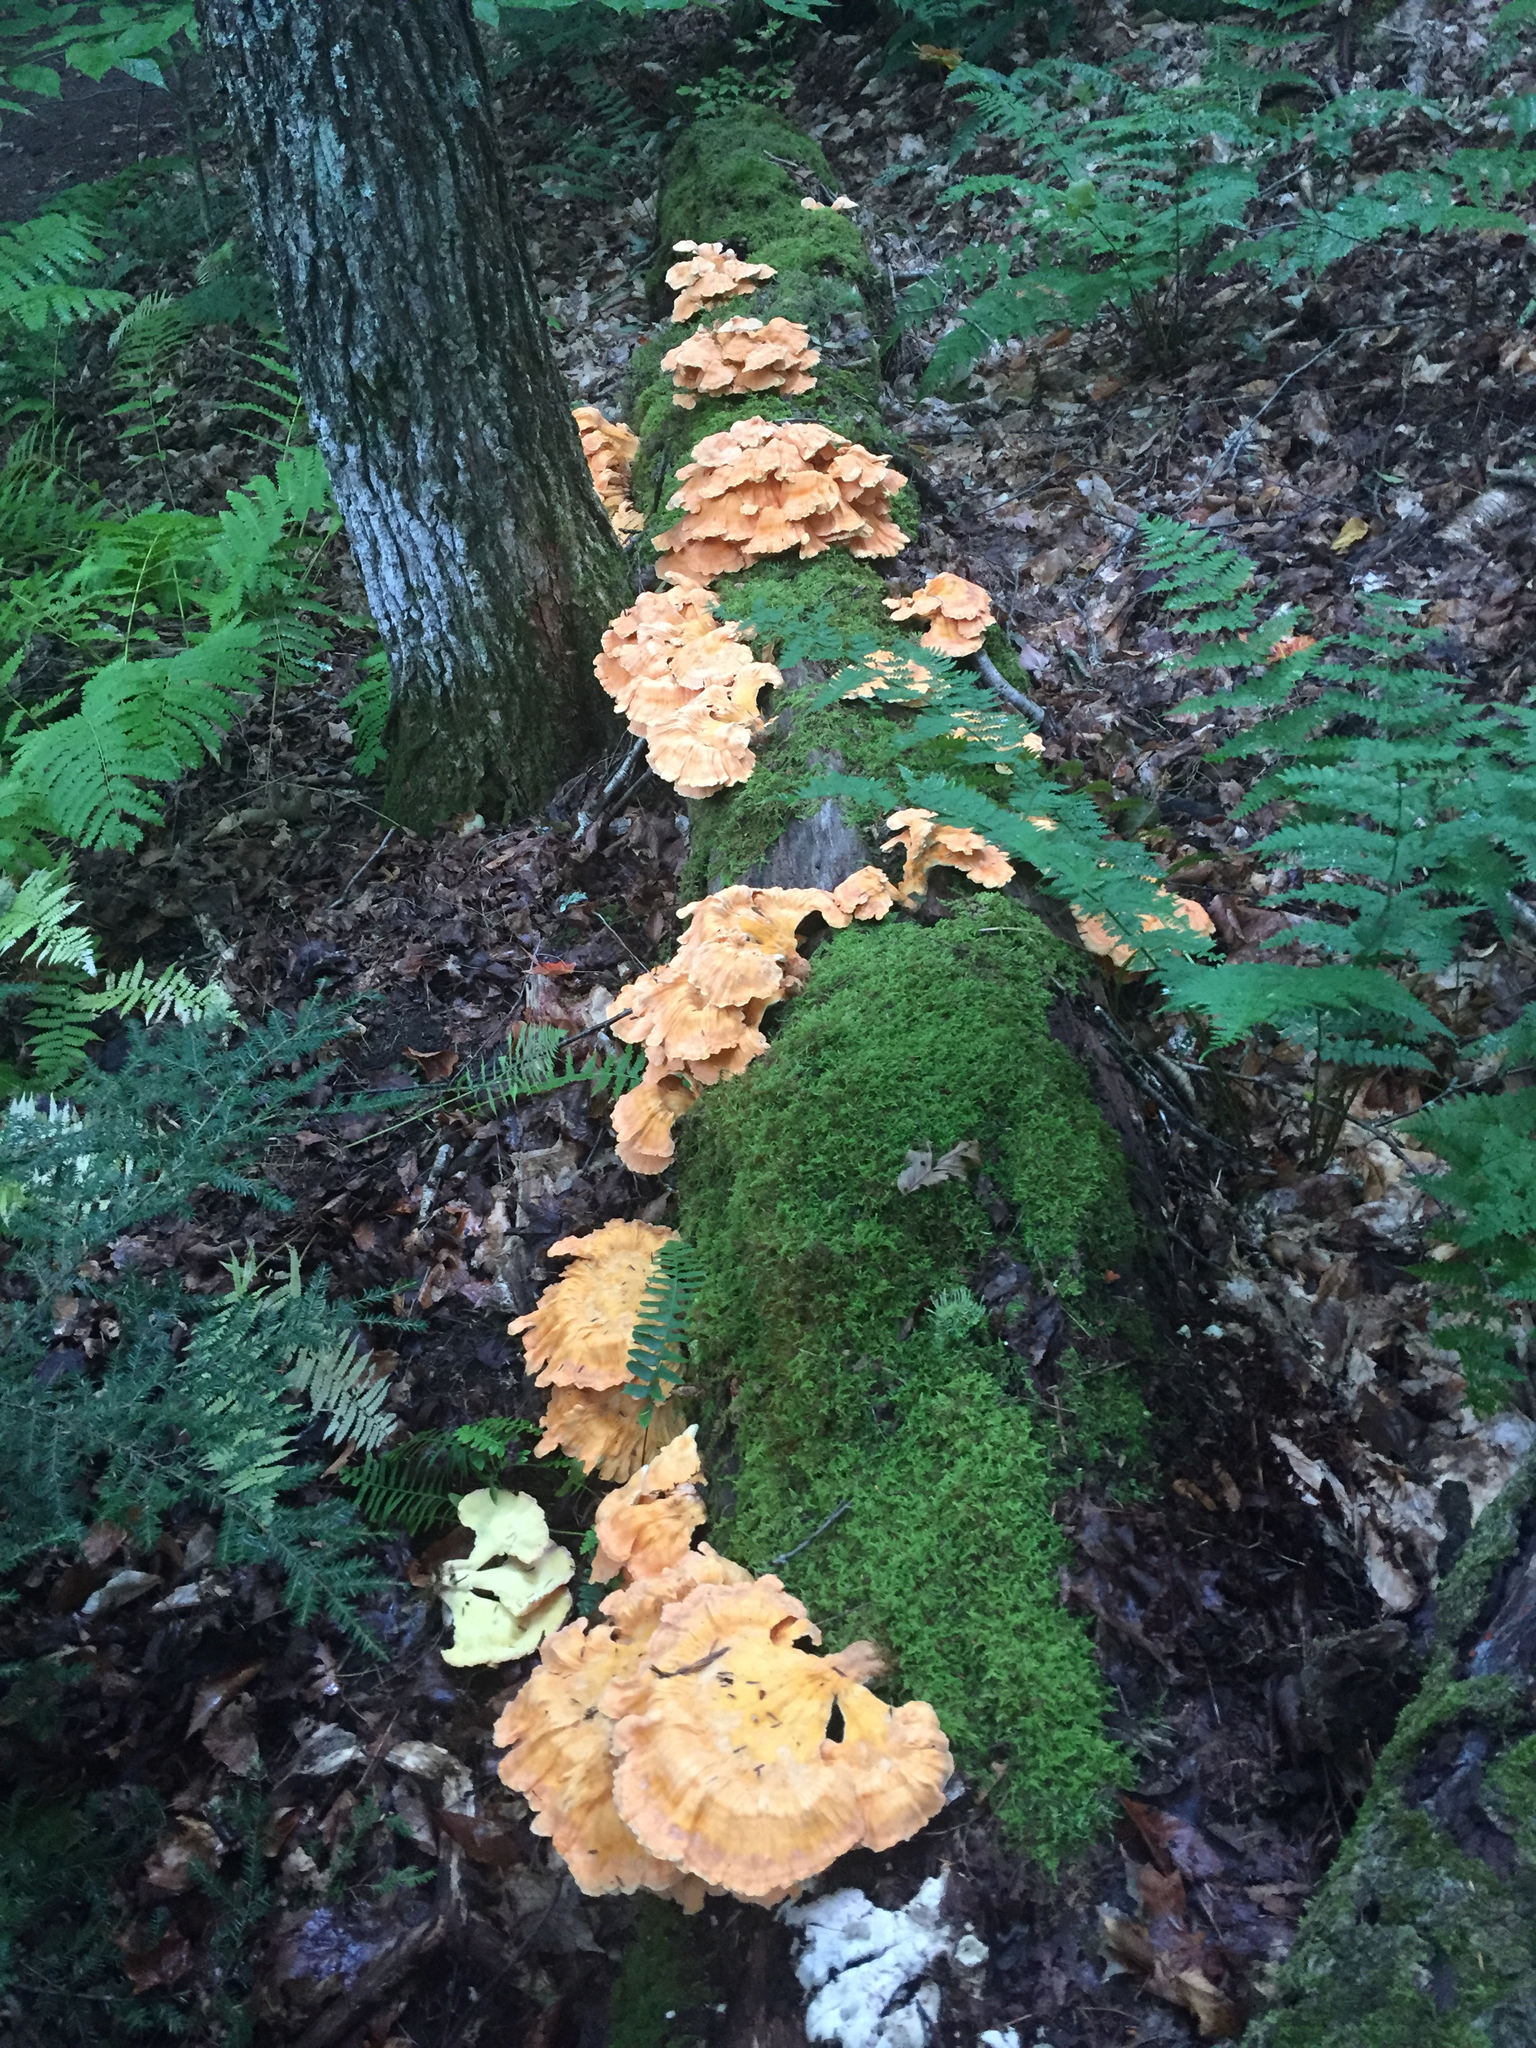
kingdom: Fungi
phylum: Basidiomycota
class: Agaricomycetes
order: Polyporales
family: Laetiporaceae
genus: Laetiporus
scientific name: Laetiporus sulphureus
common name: Chicken of the woods
